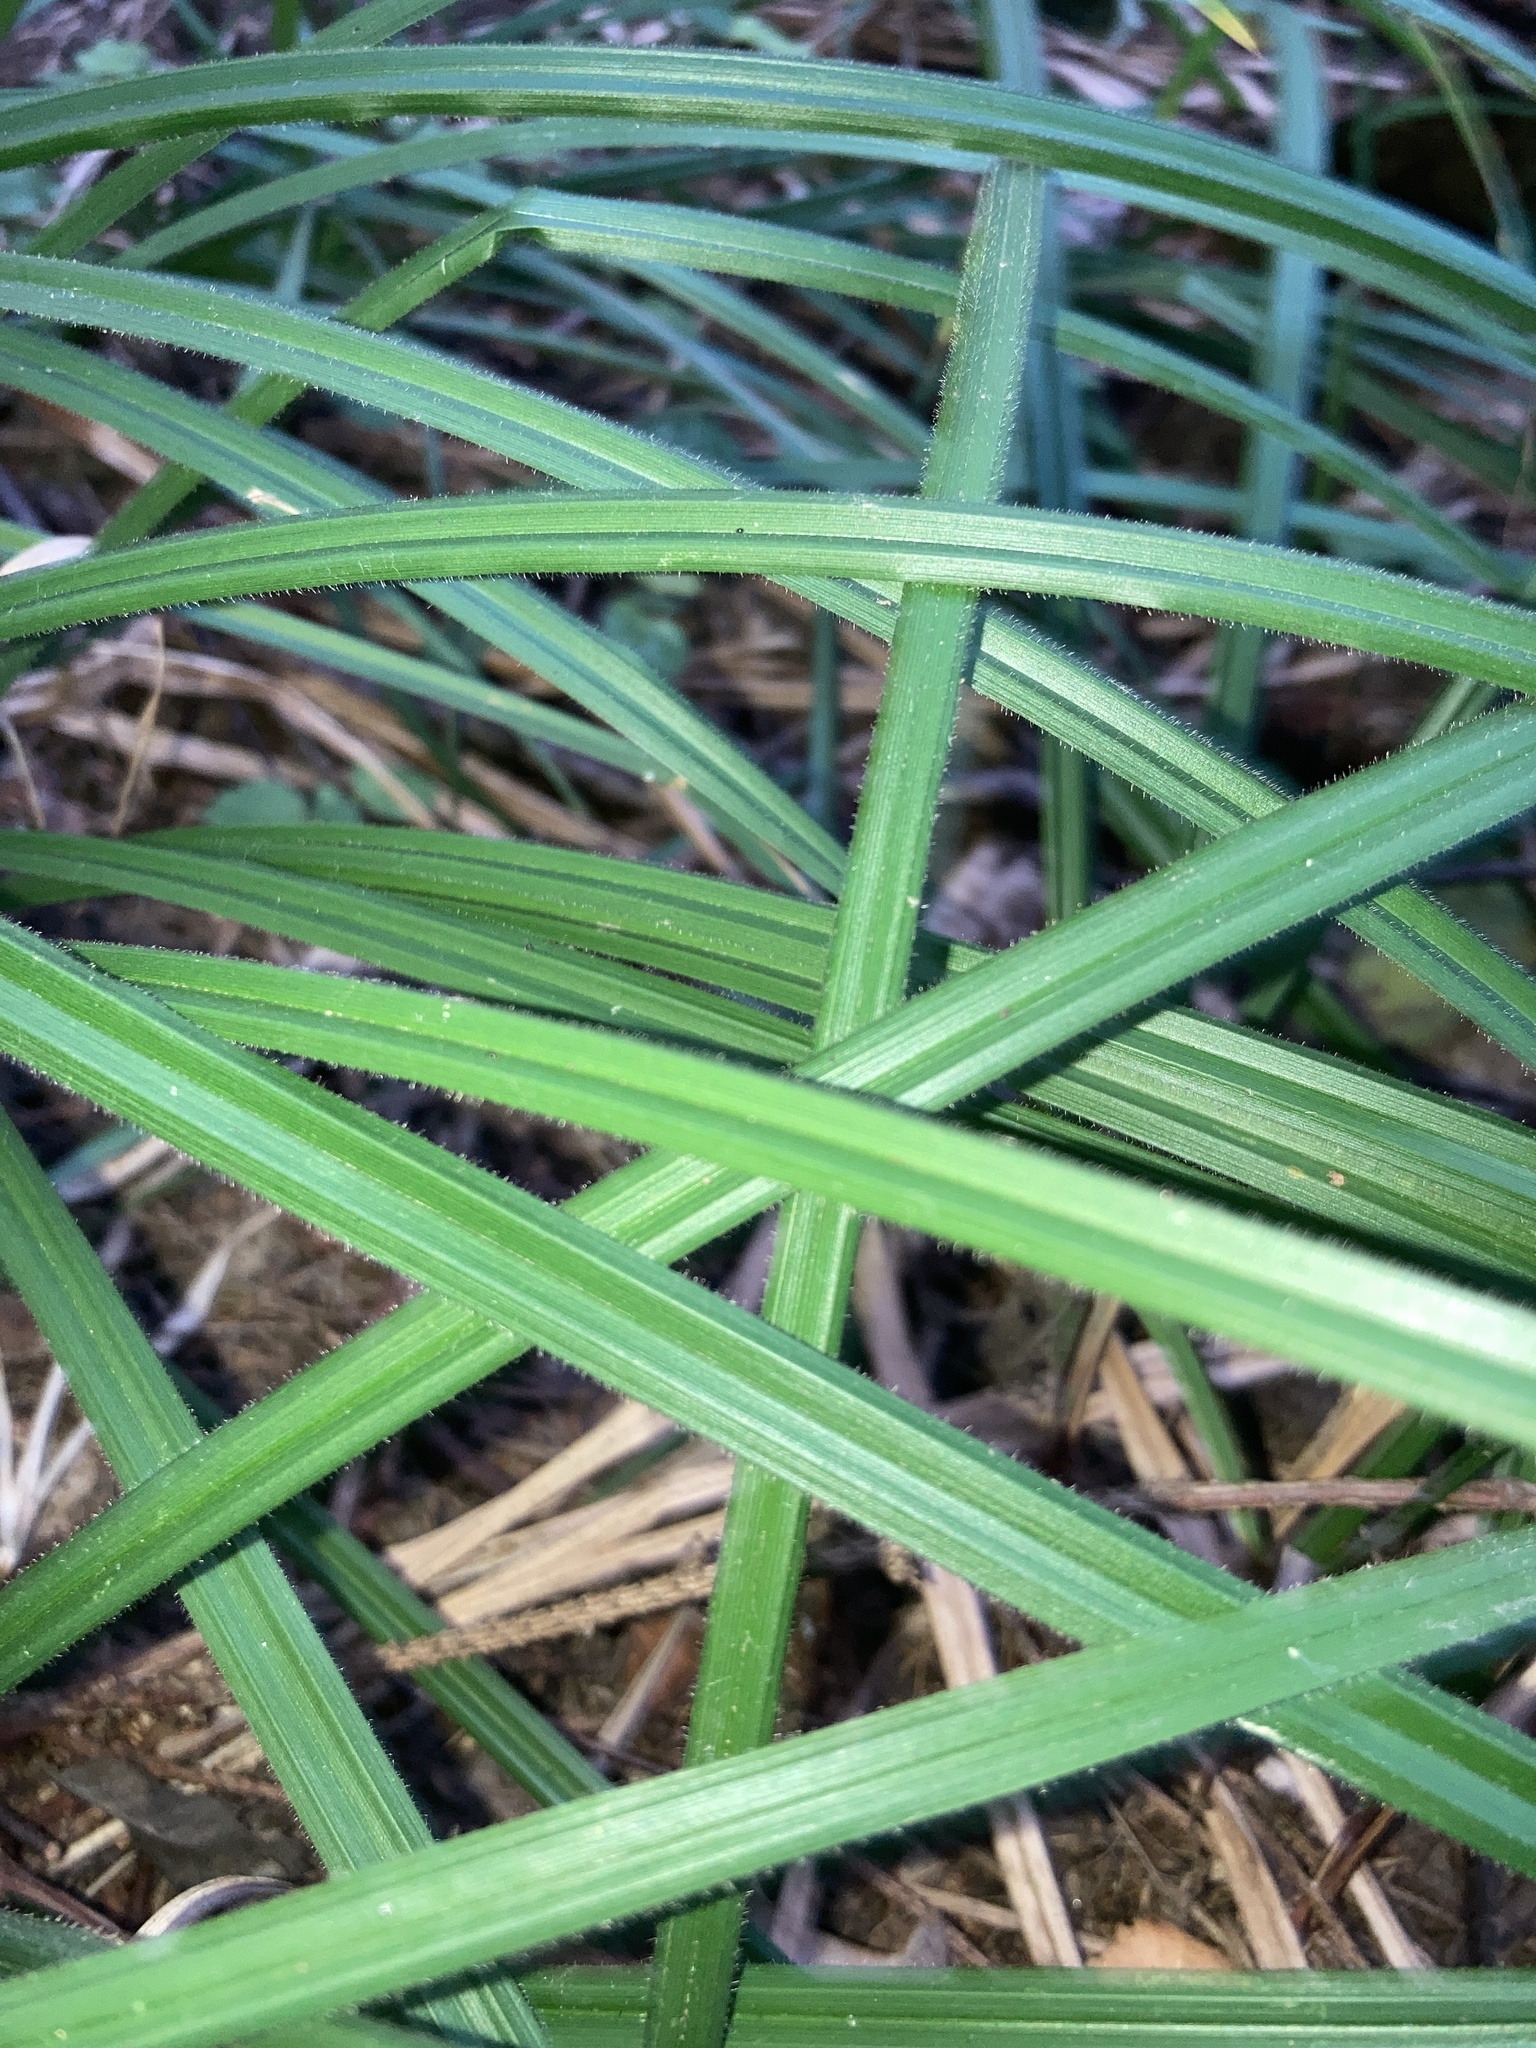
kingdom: Plantae
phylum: Tracheophyta
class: Liliopsida
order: Poales
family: Cyperaceae
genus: Carex
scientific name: Carex pilosa
